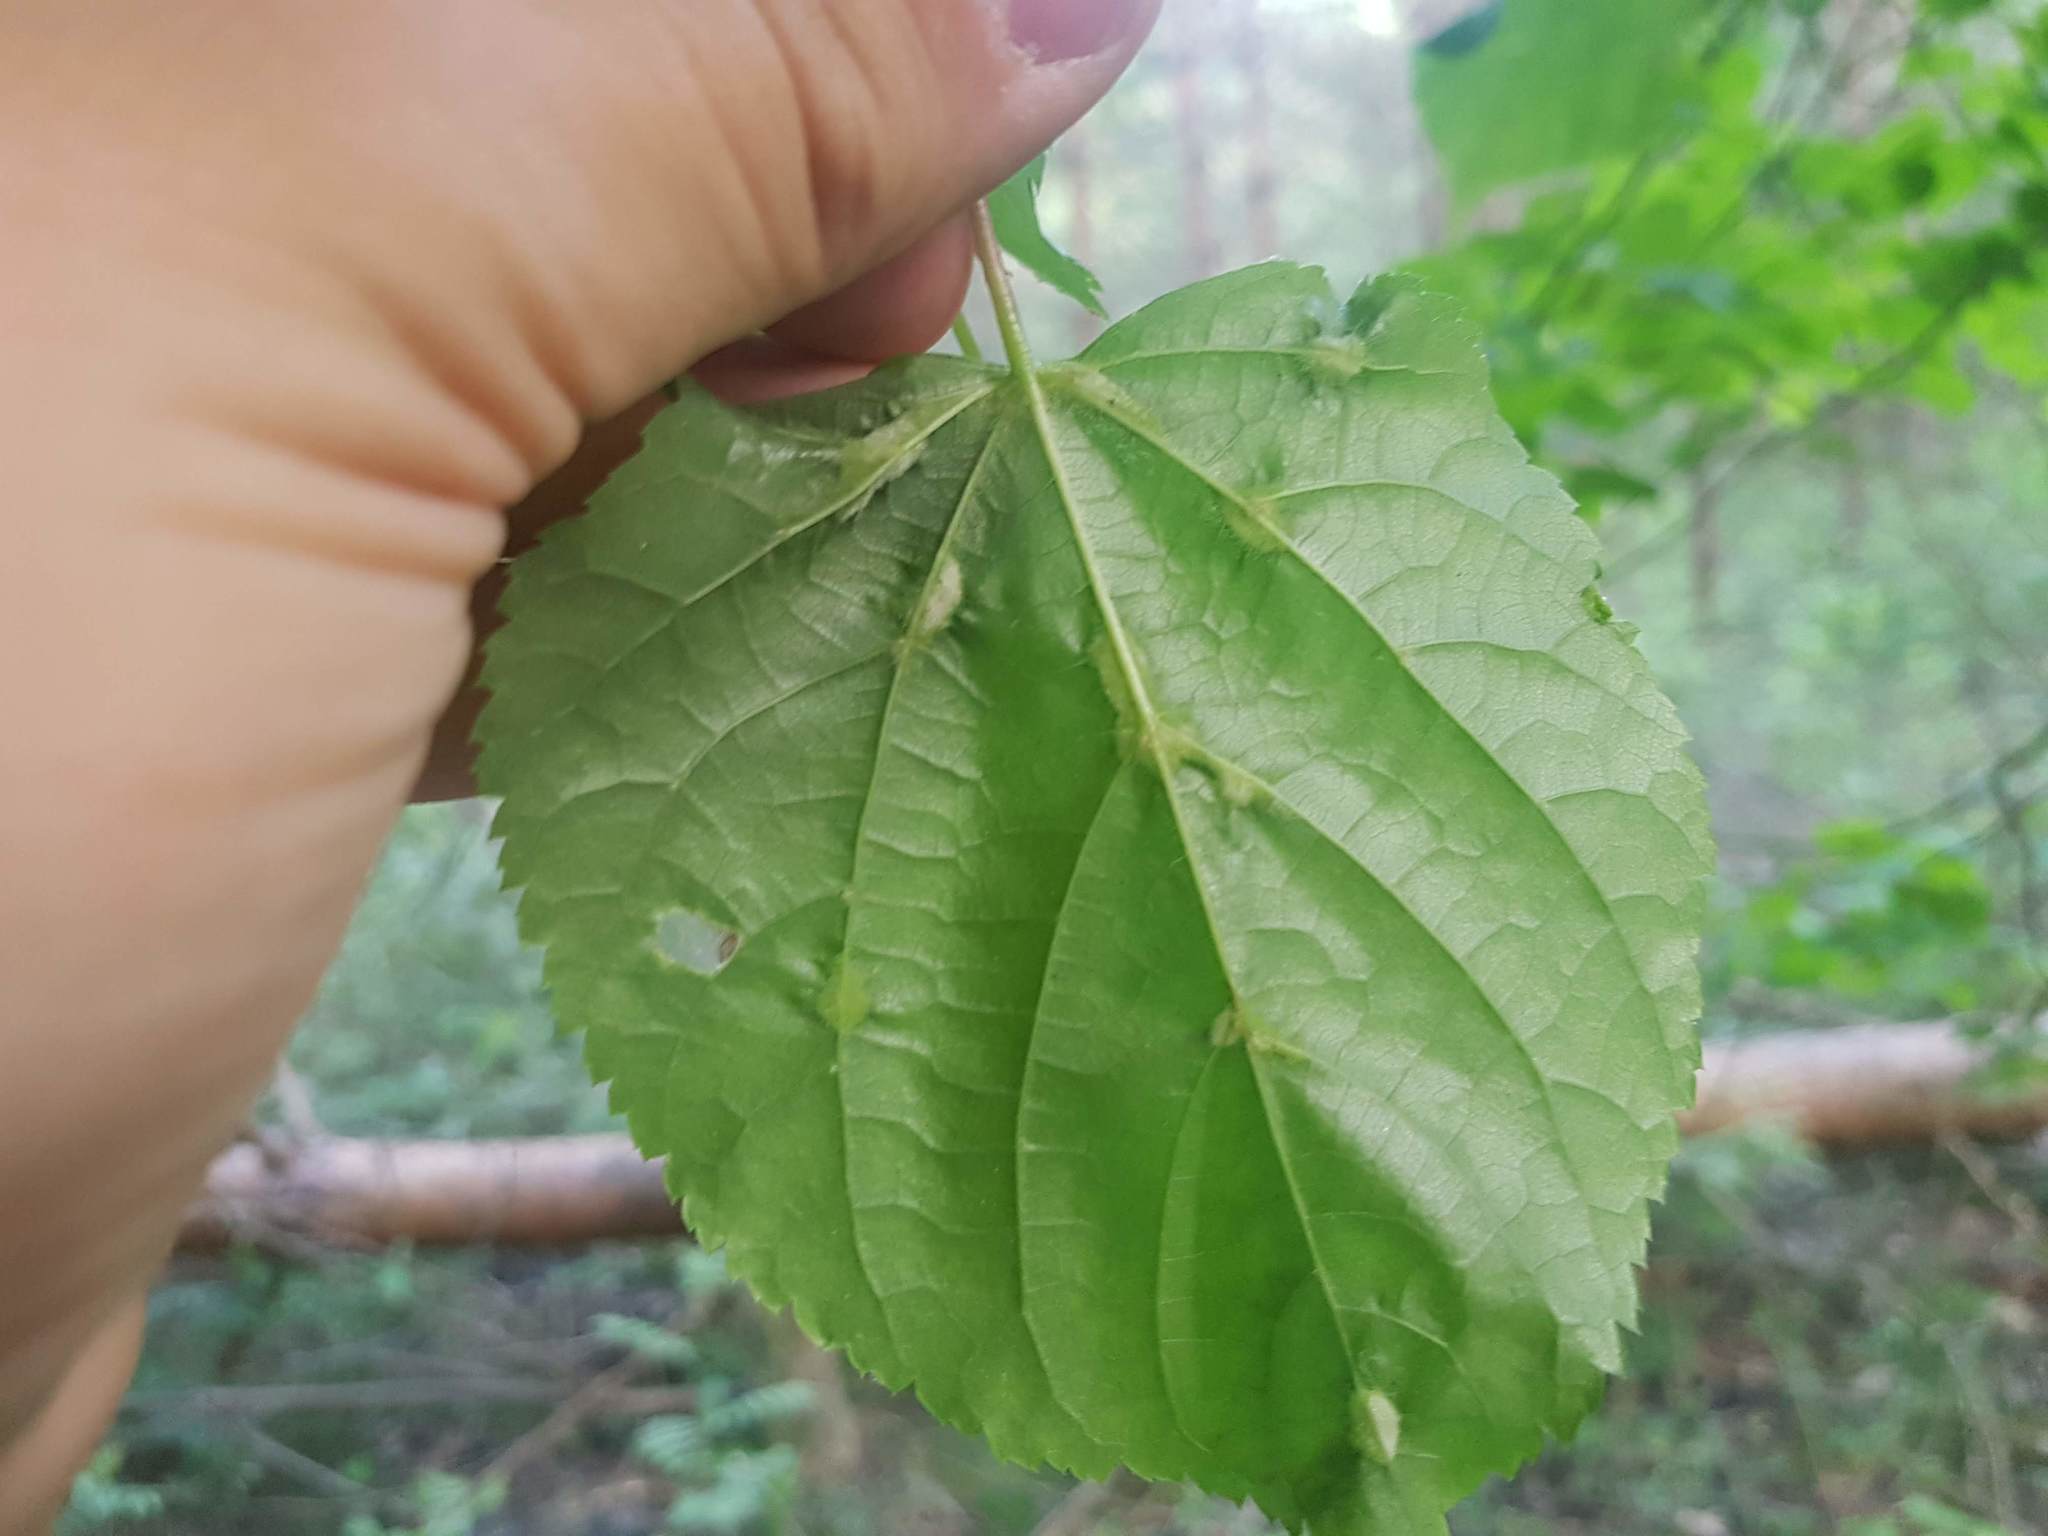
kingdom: Animalia
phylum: Arthropoda
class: Arachnida
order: Trombidiformes
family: Eriophyidae
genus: Eriophyes
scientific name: Eriophyes exilis
